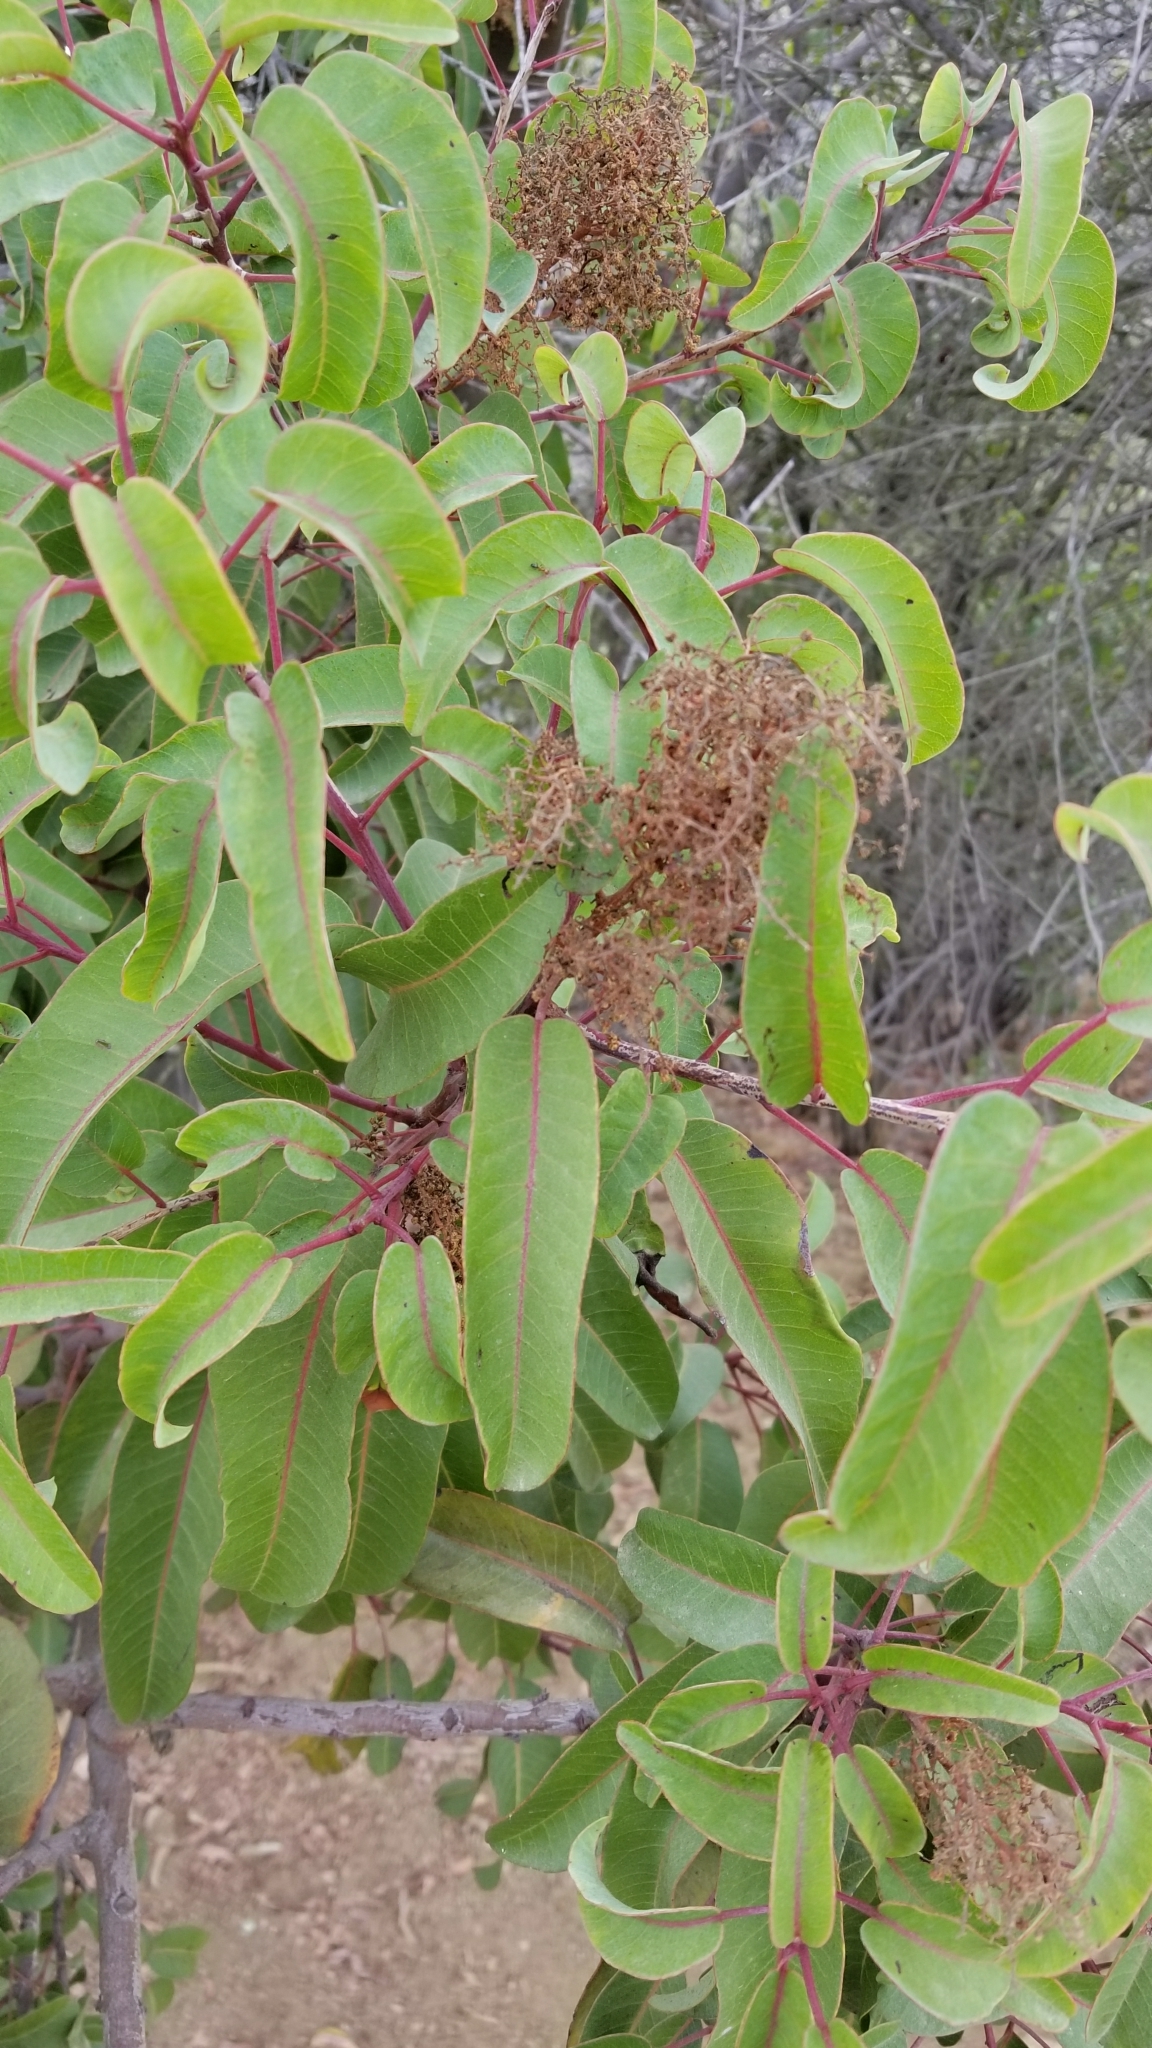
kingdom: Plantae
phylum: Tracheophyta
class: Magnoliopsida
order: Sapindales
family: Anacardiaceae
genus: Malosma
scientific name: Malosma laurina
